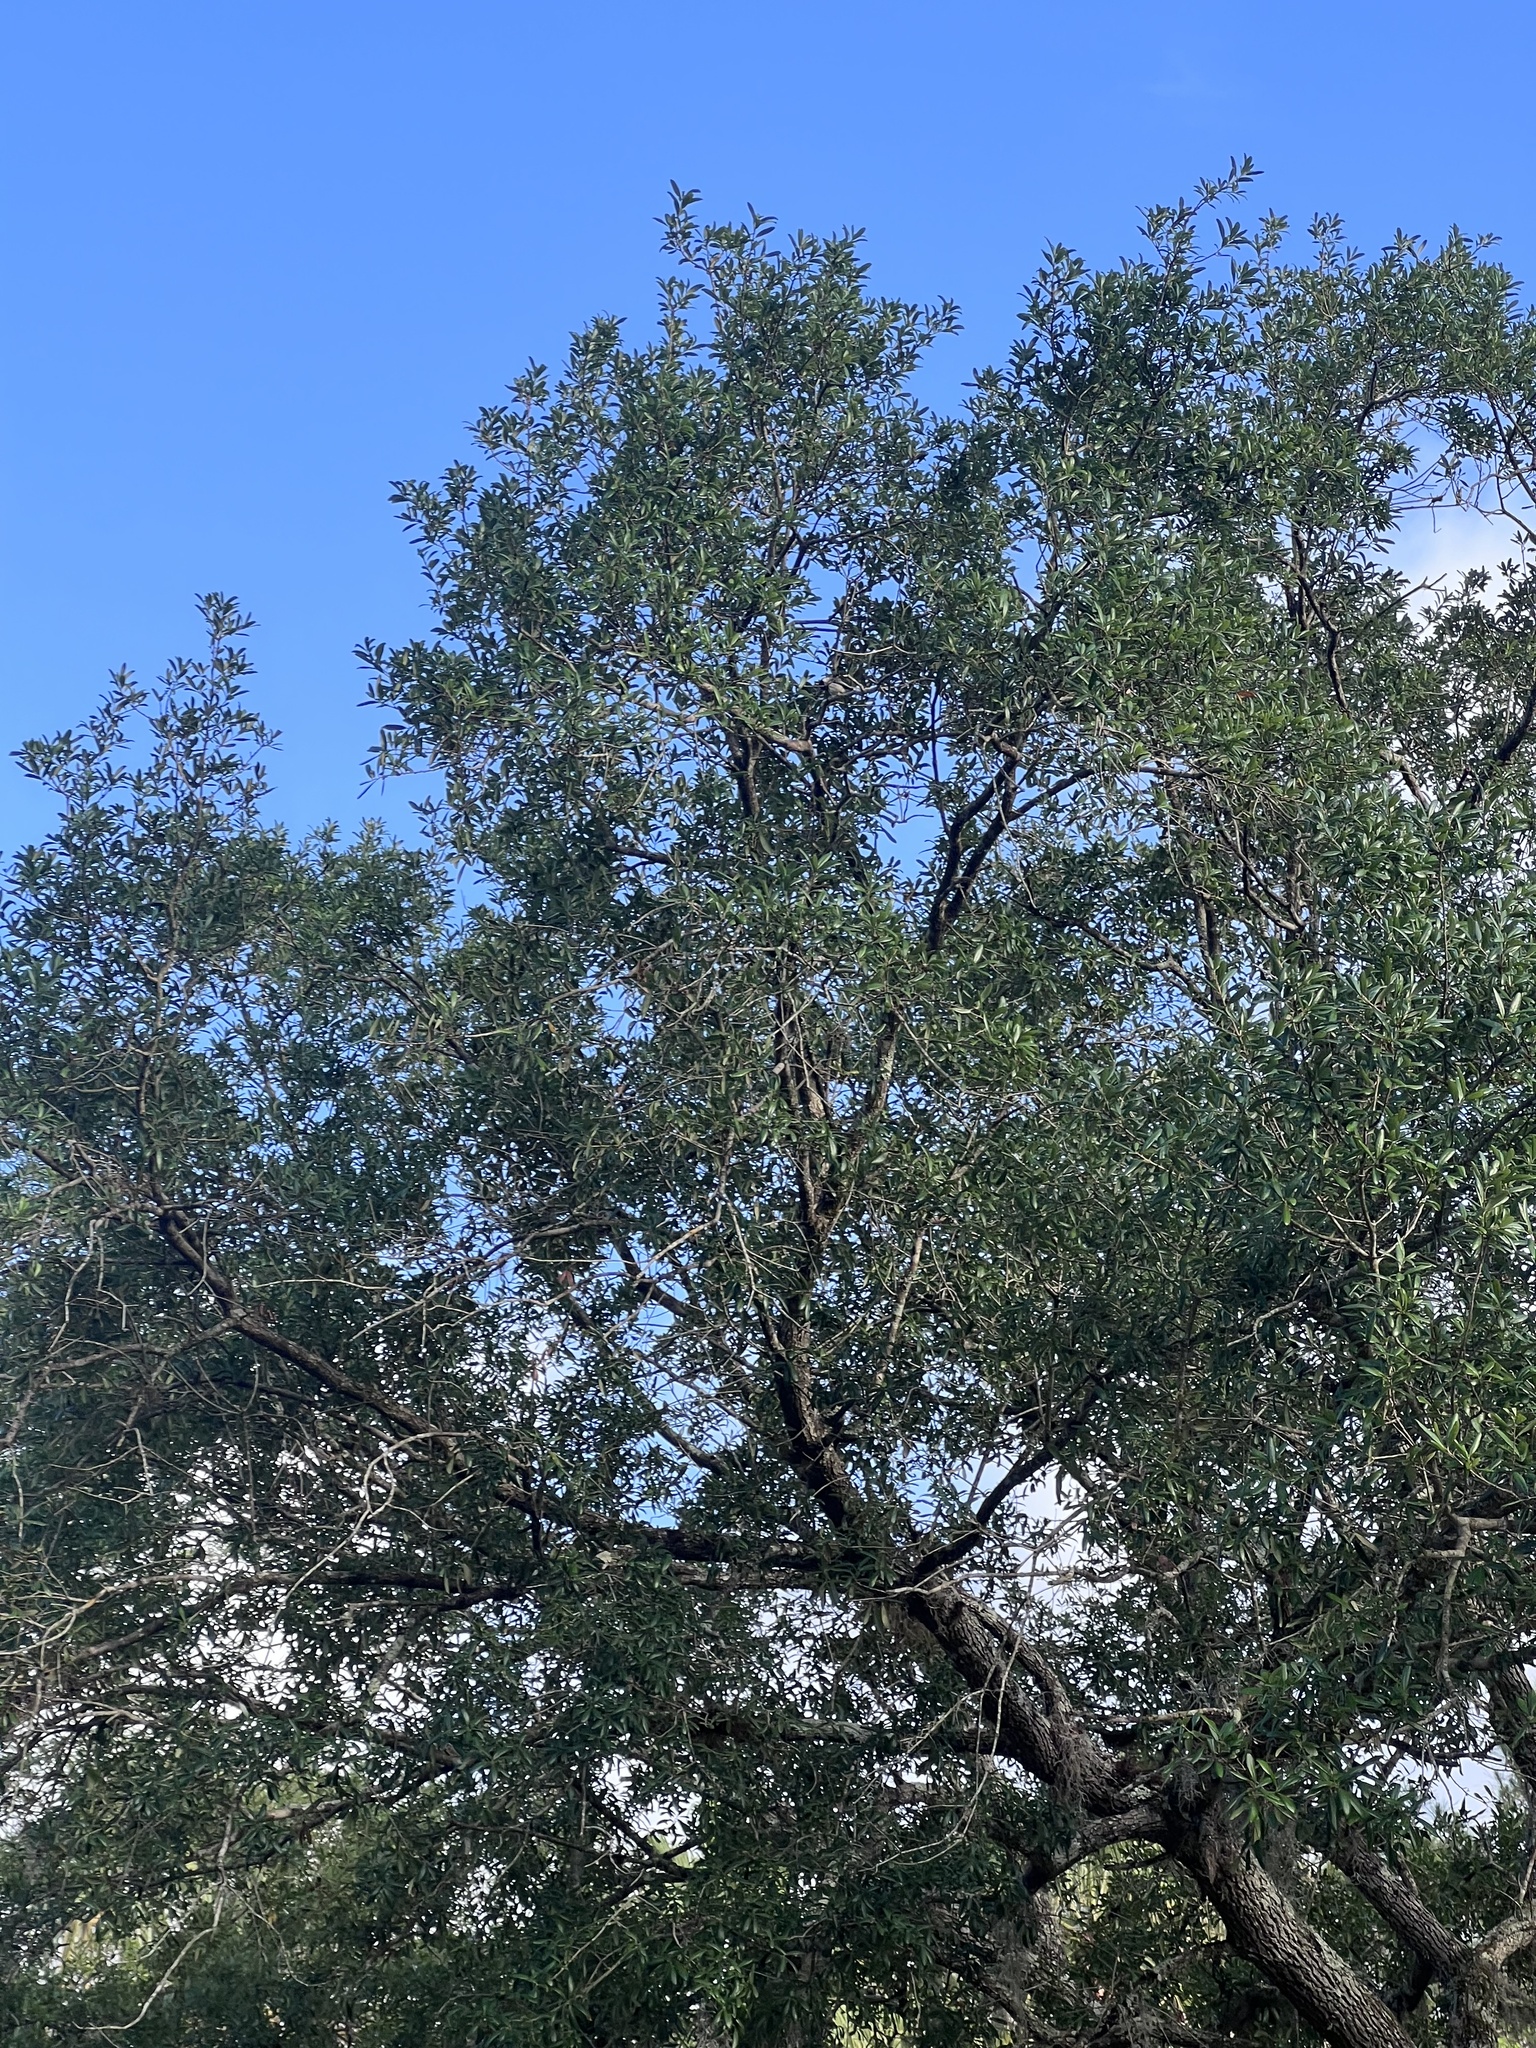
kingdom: Animalia
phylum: Chordata
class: Aves
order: Passeriformes
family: Paridae
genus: Poecile
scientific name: Poecile carolinensis
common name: Carolina chickadee
